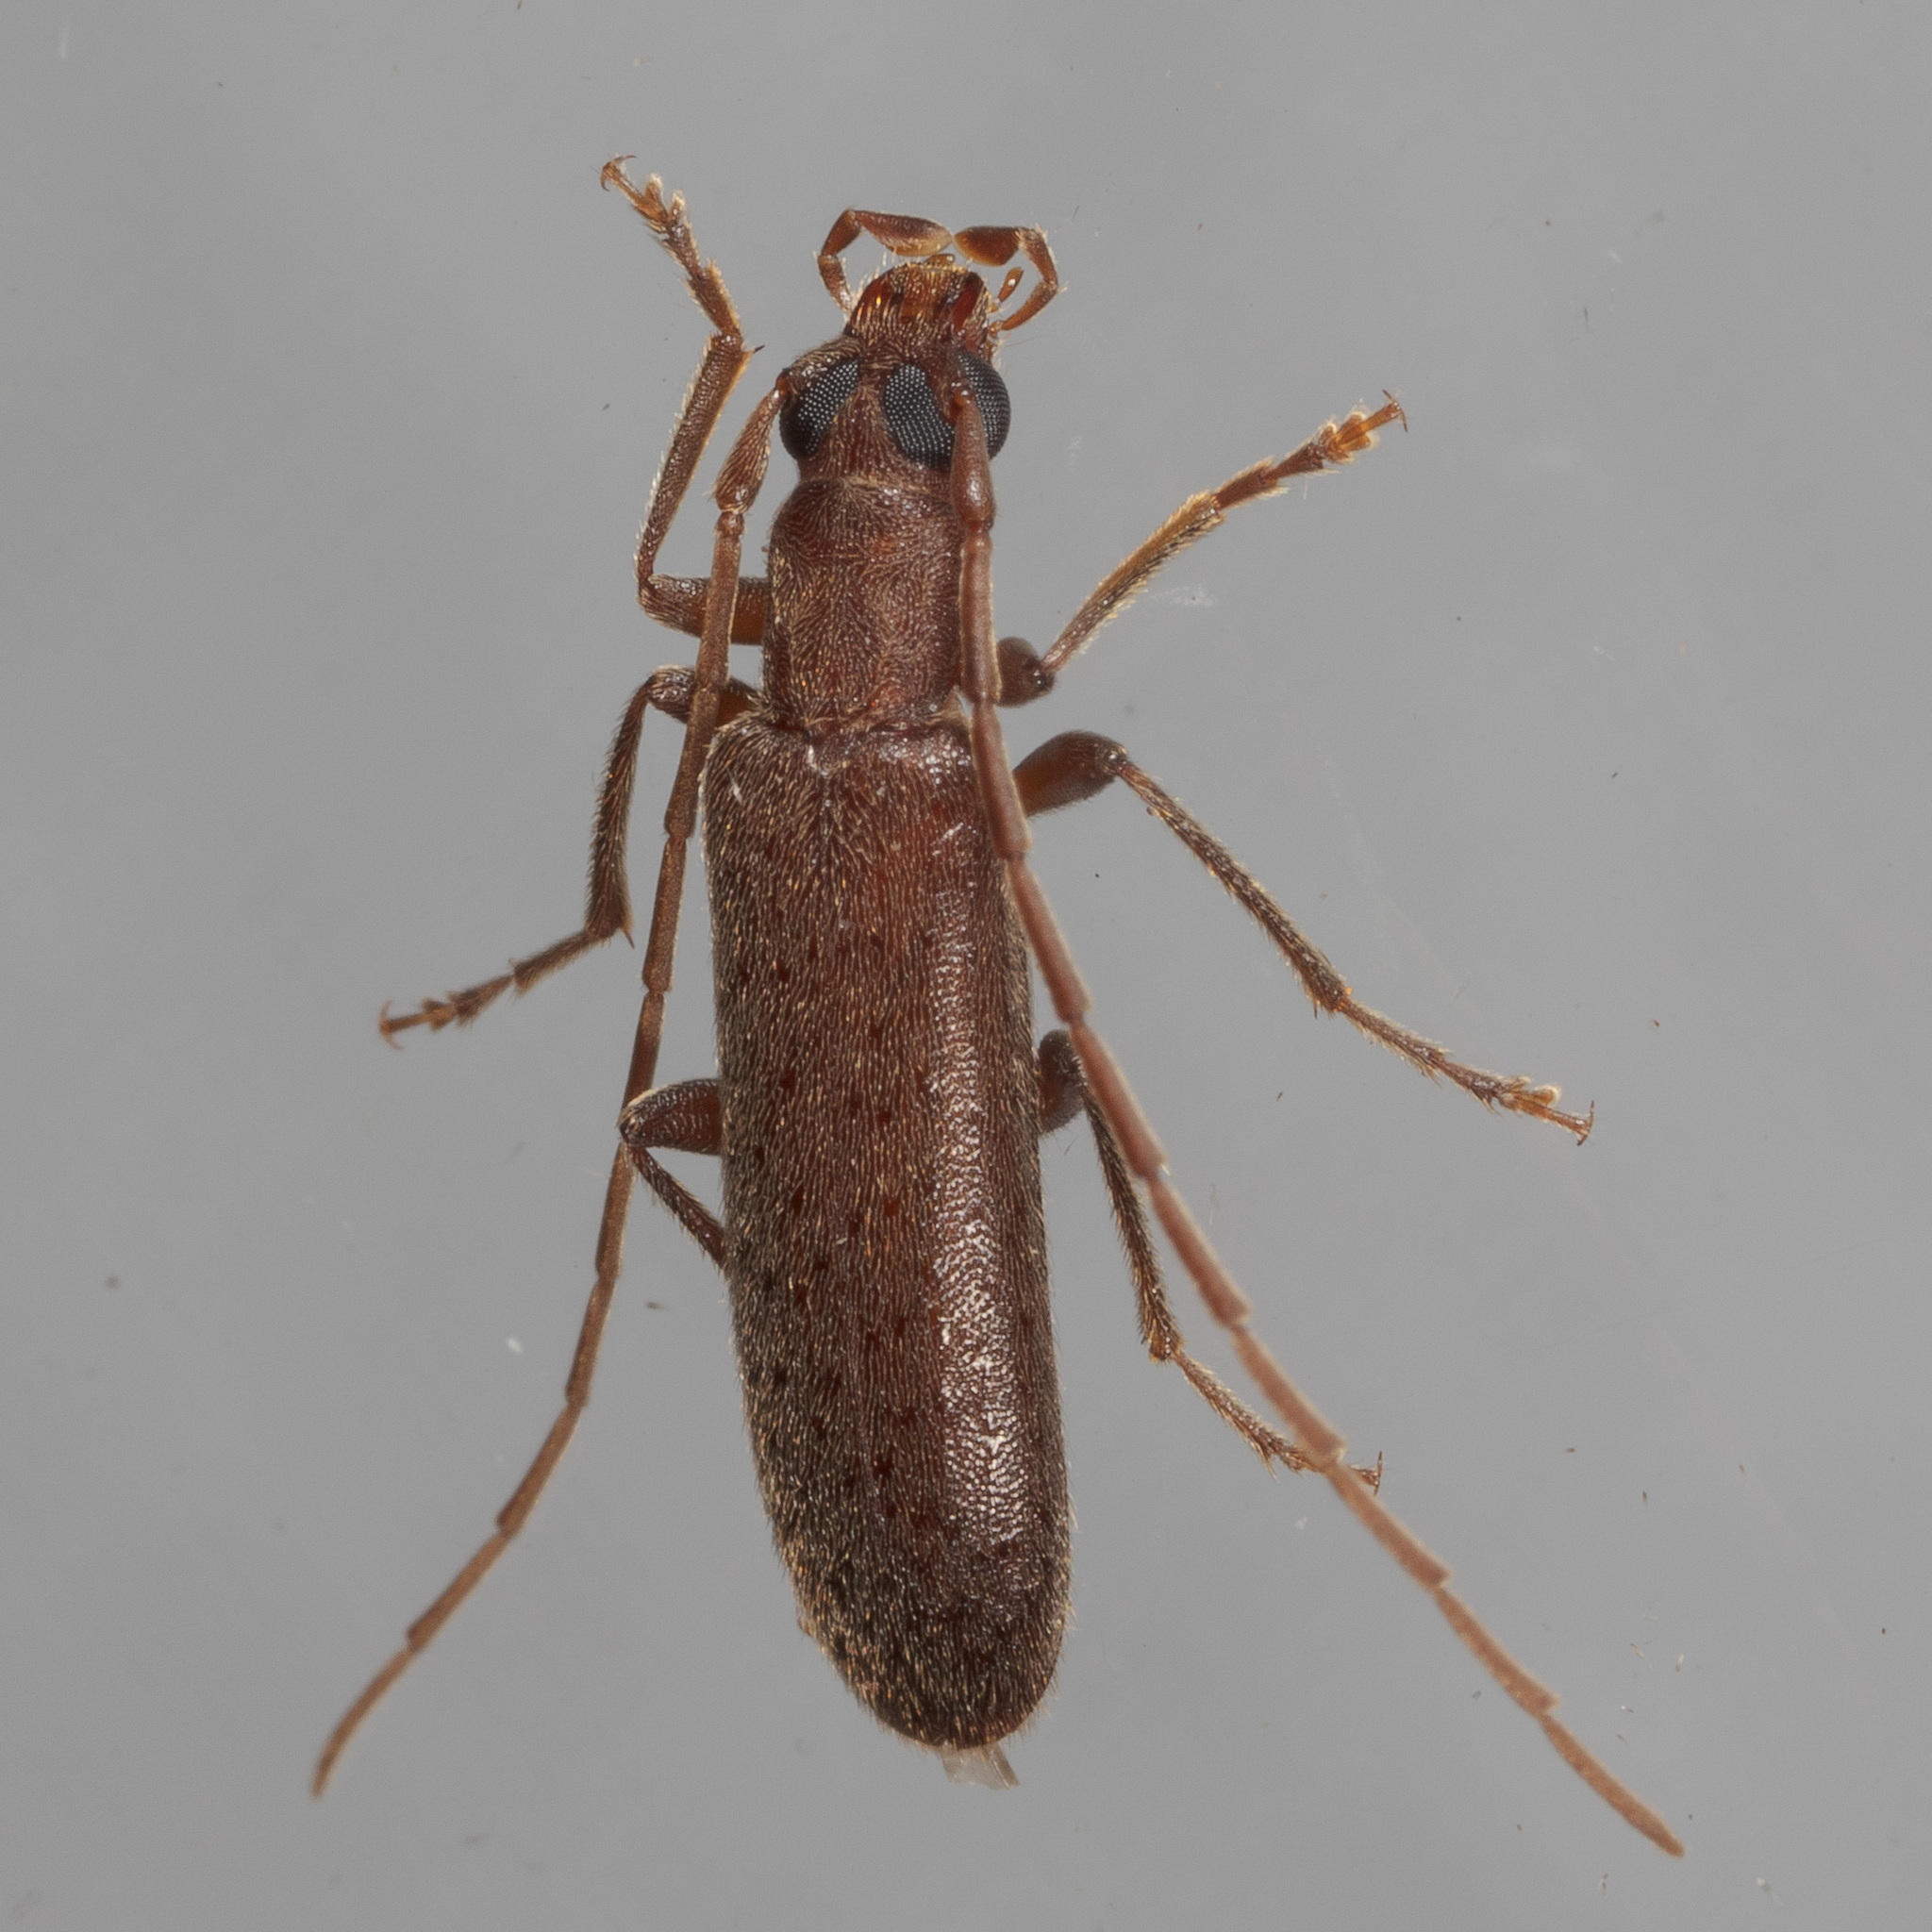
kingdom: Animalia
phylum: Arthropoda
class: Insecta
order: Coleoptera
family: Oedemeridae
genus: Sparedrus
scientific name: Sparedrus aspersus
